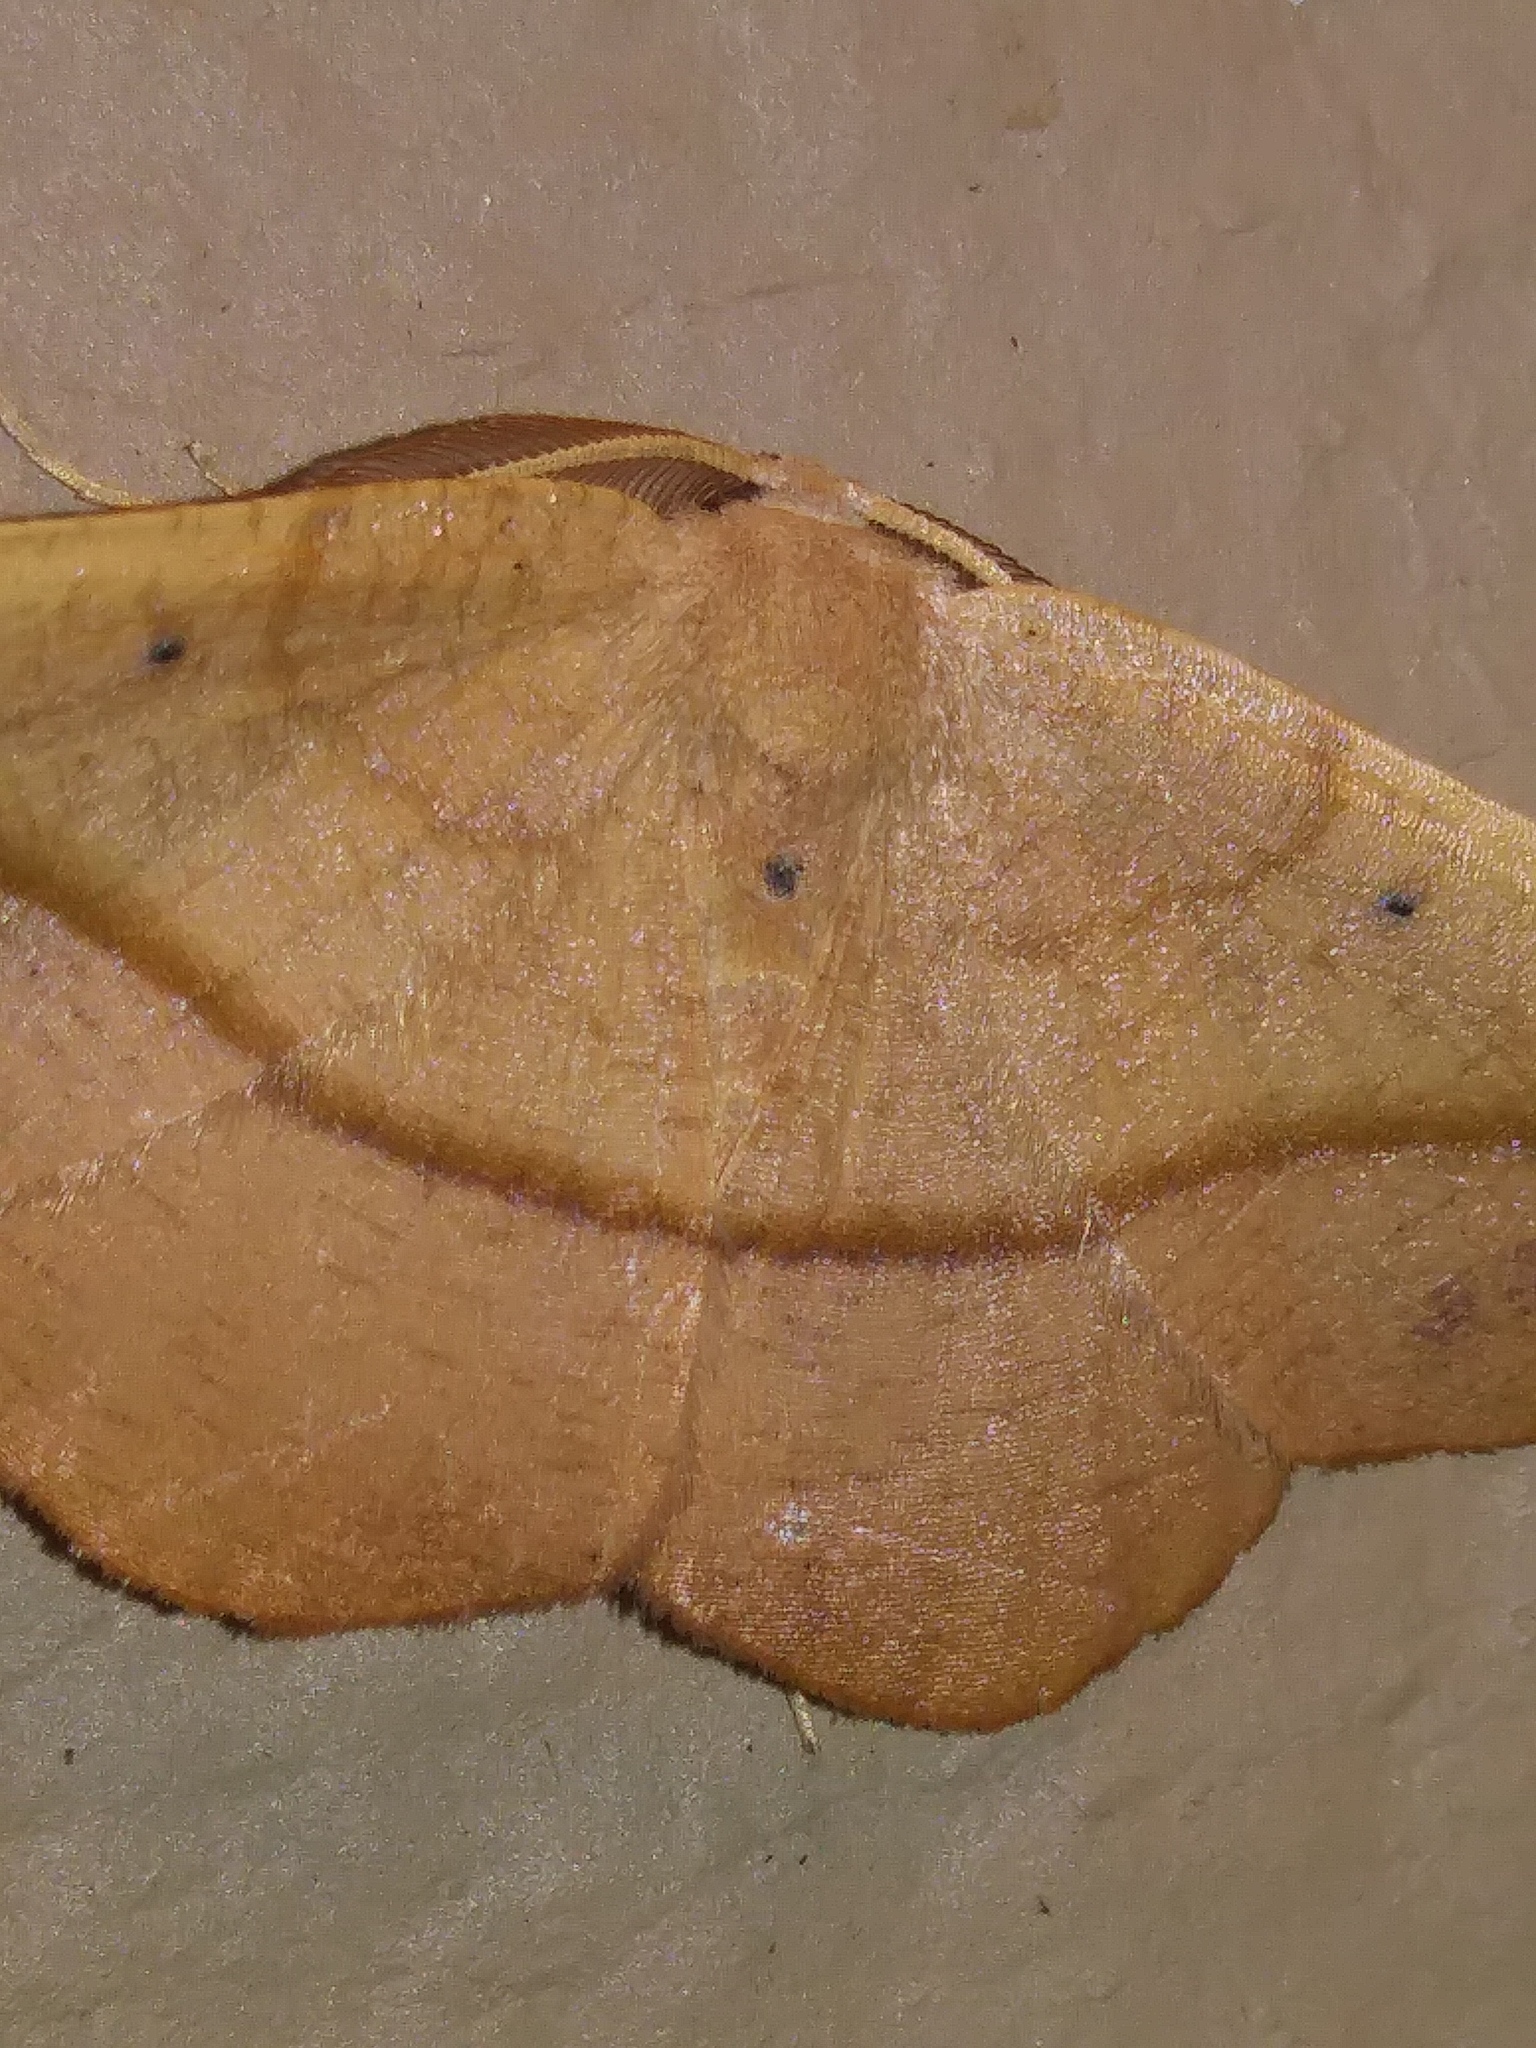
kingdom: Animalia
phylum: Arthropoda
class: Insecta
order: Lepidoptera
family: Geometridae
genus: Patalene
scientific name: Patalene olyzonaria
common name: Juniper geometer moth
